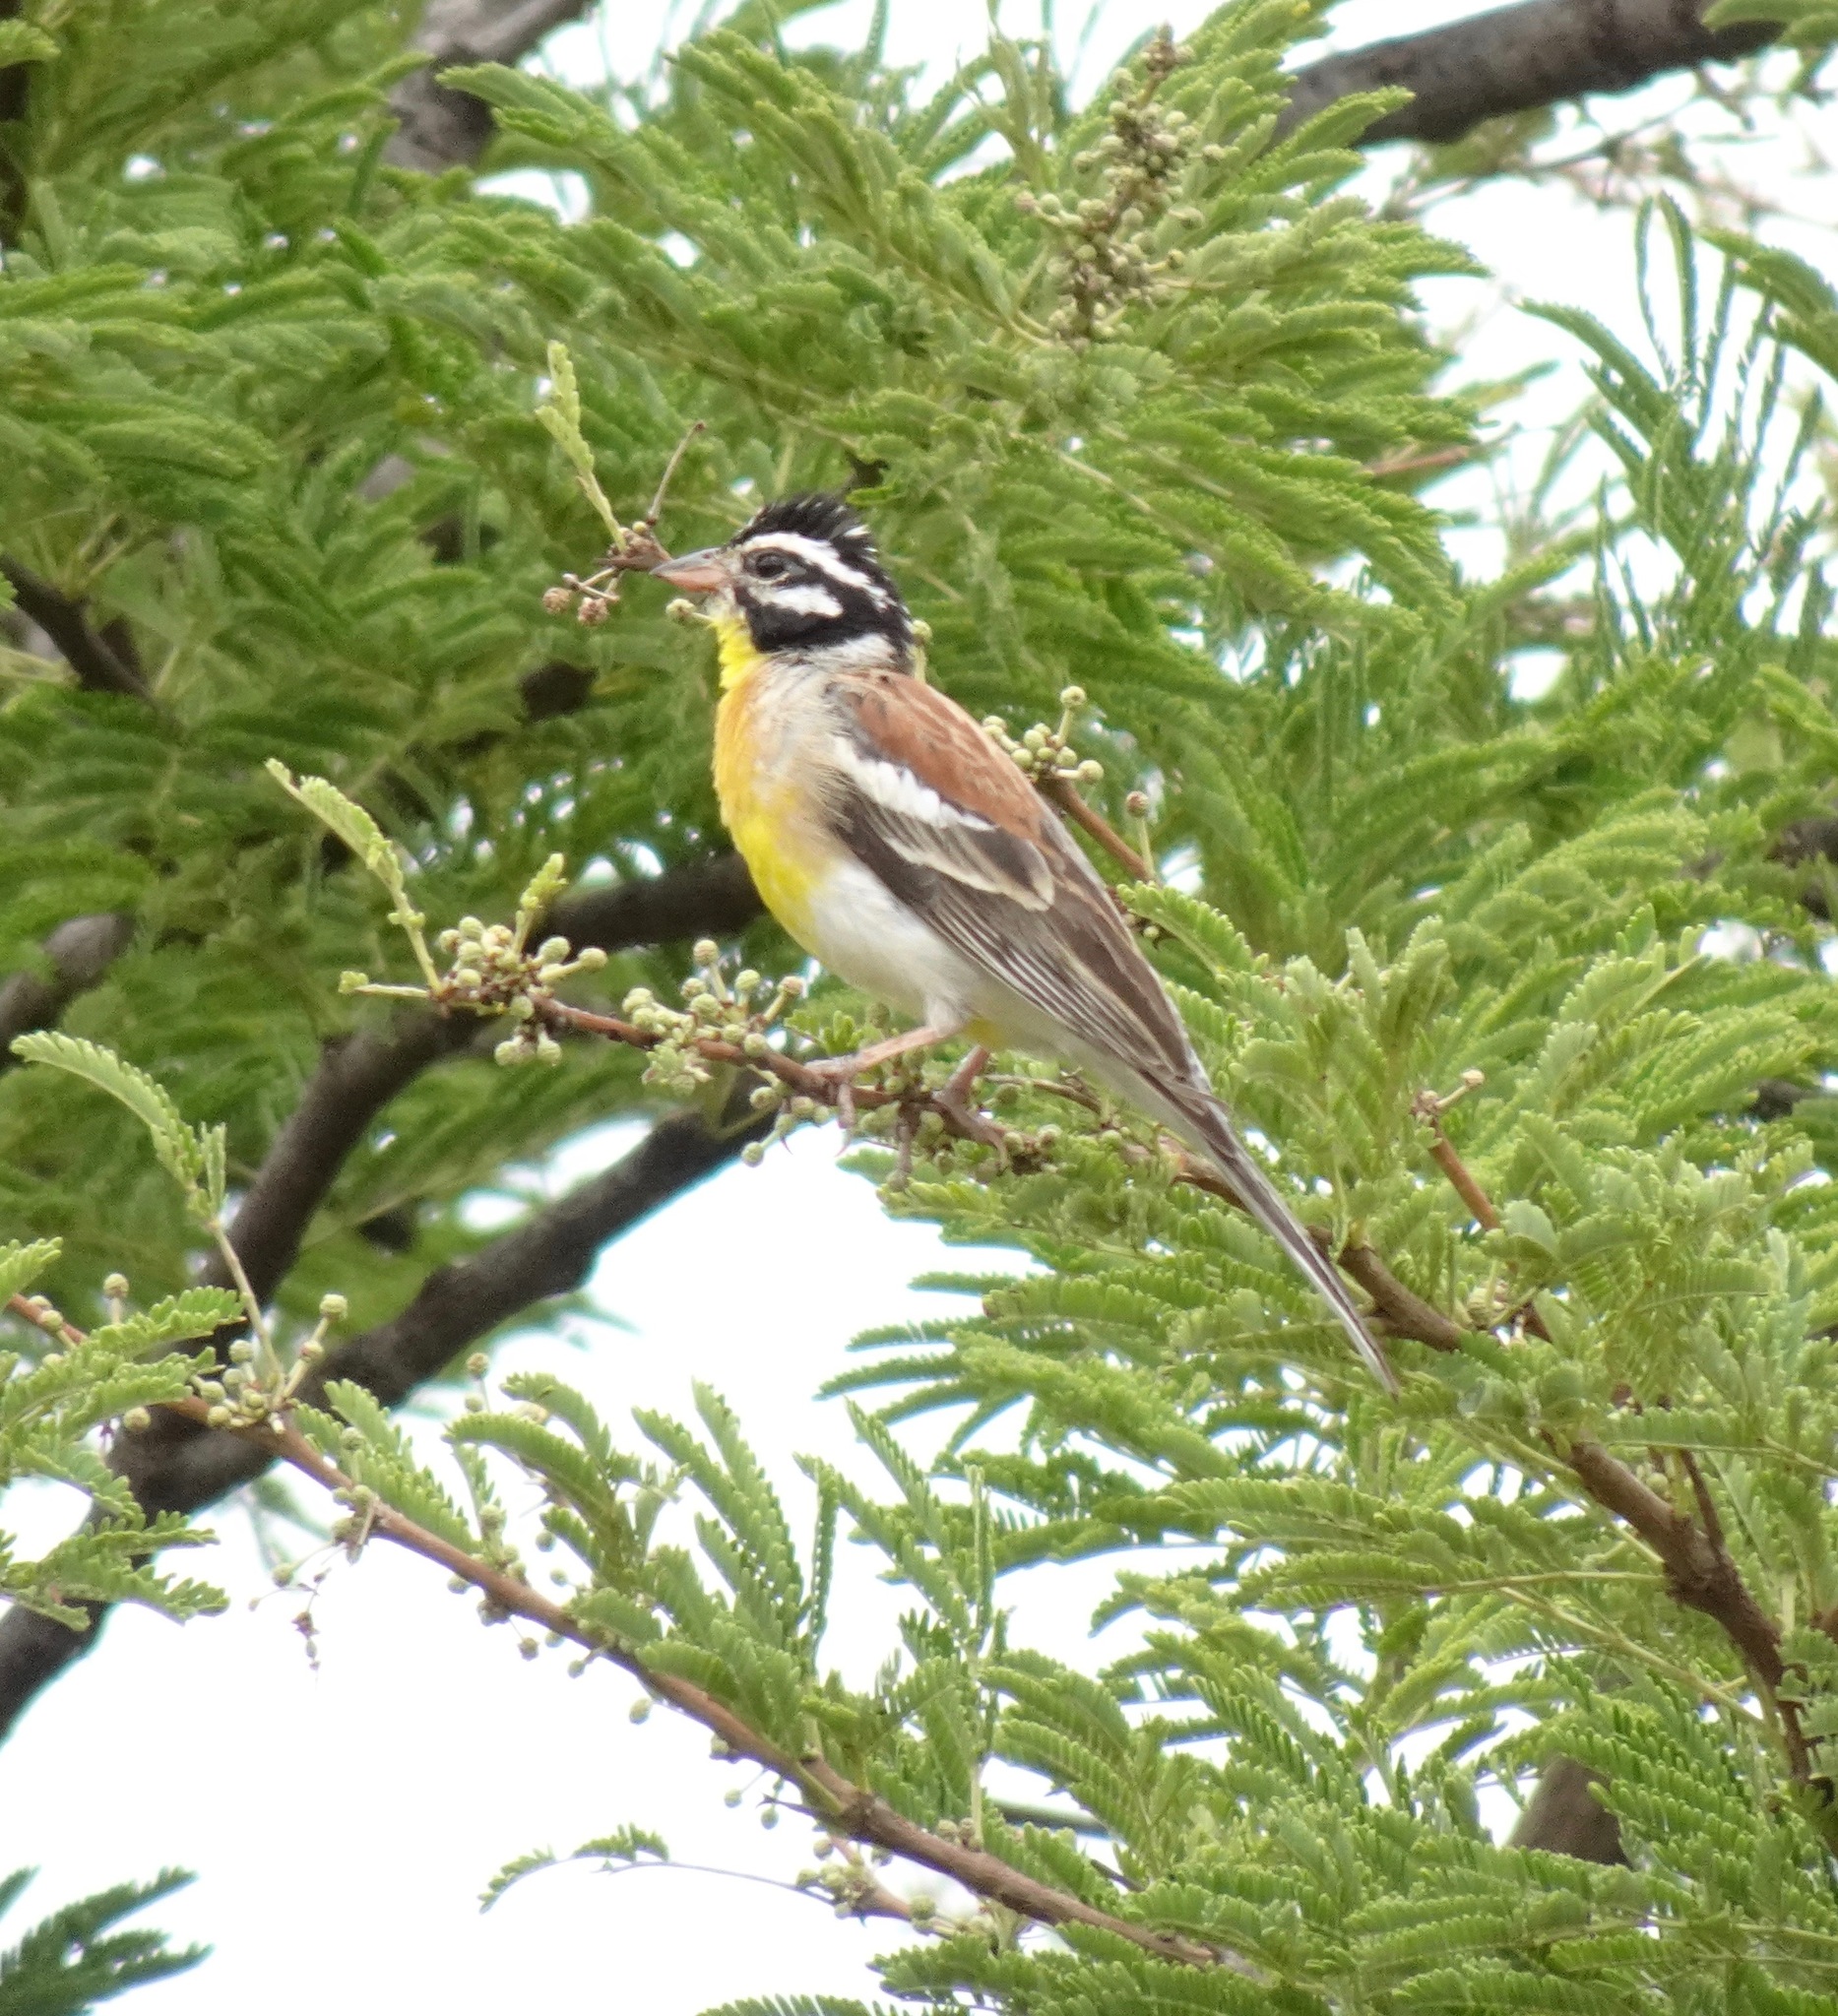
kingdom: Animalia
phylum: Chordata
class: Aves
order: Passeriformes
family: Emberizidae
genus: Emberiza
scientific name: Emberiza flaviventris
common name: Golden-breasted bunting
